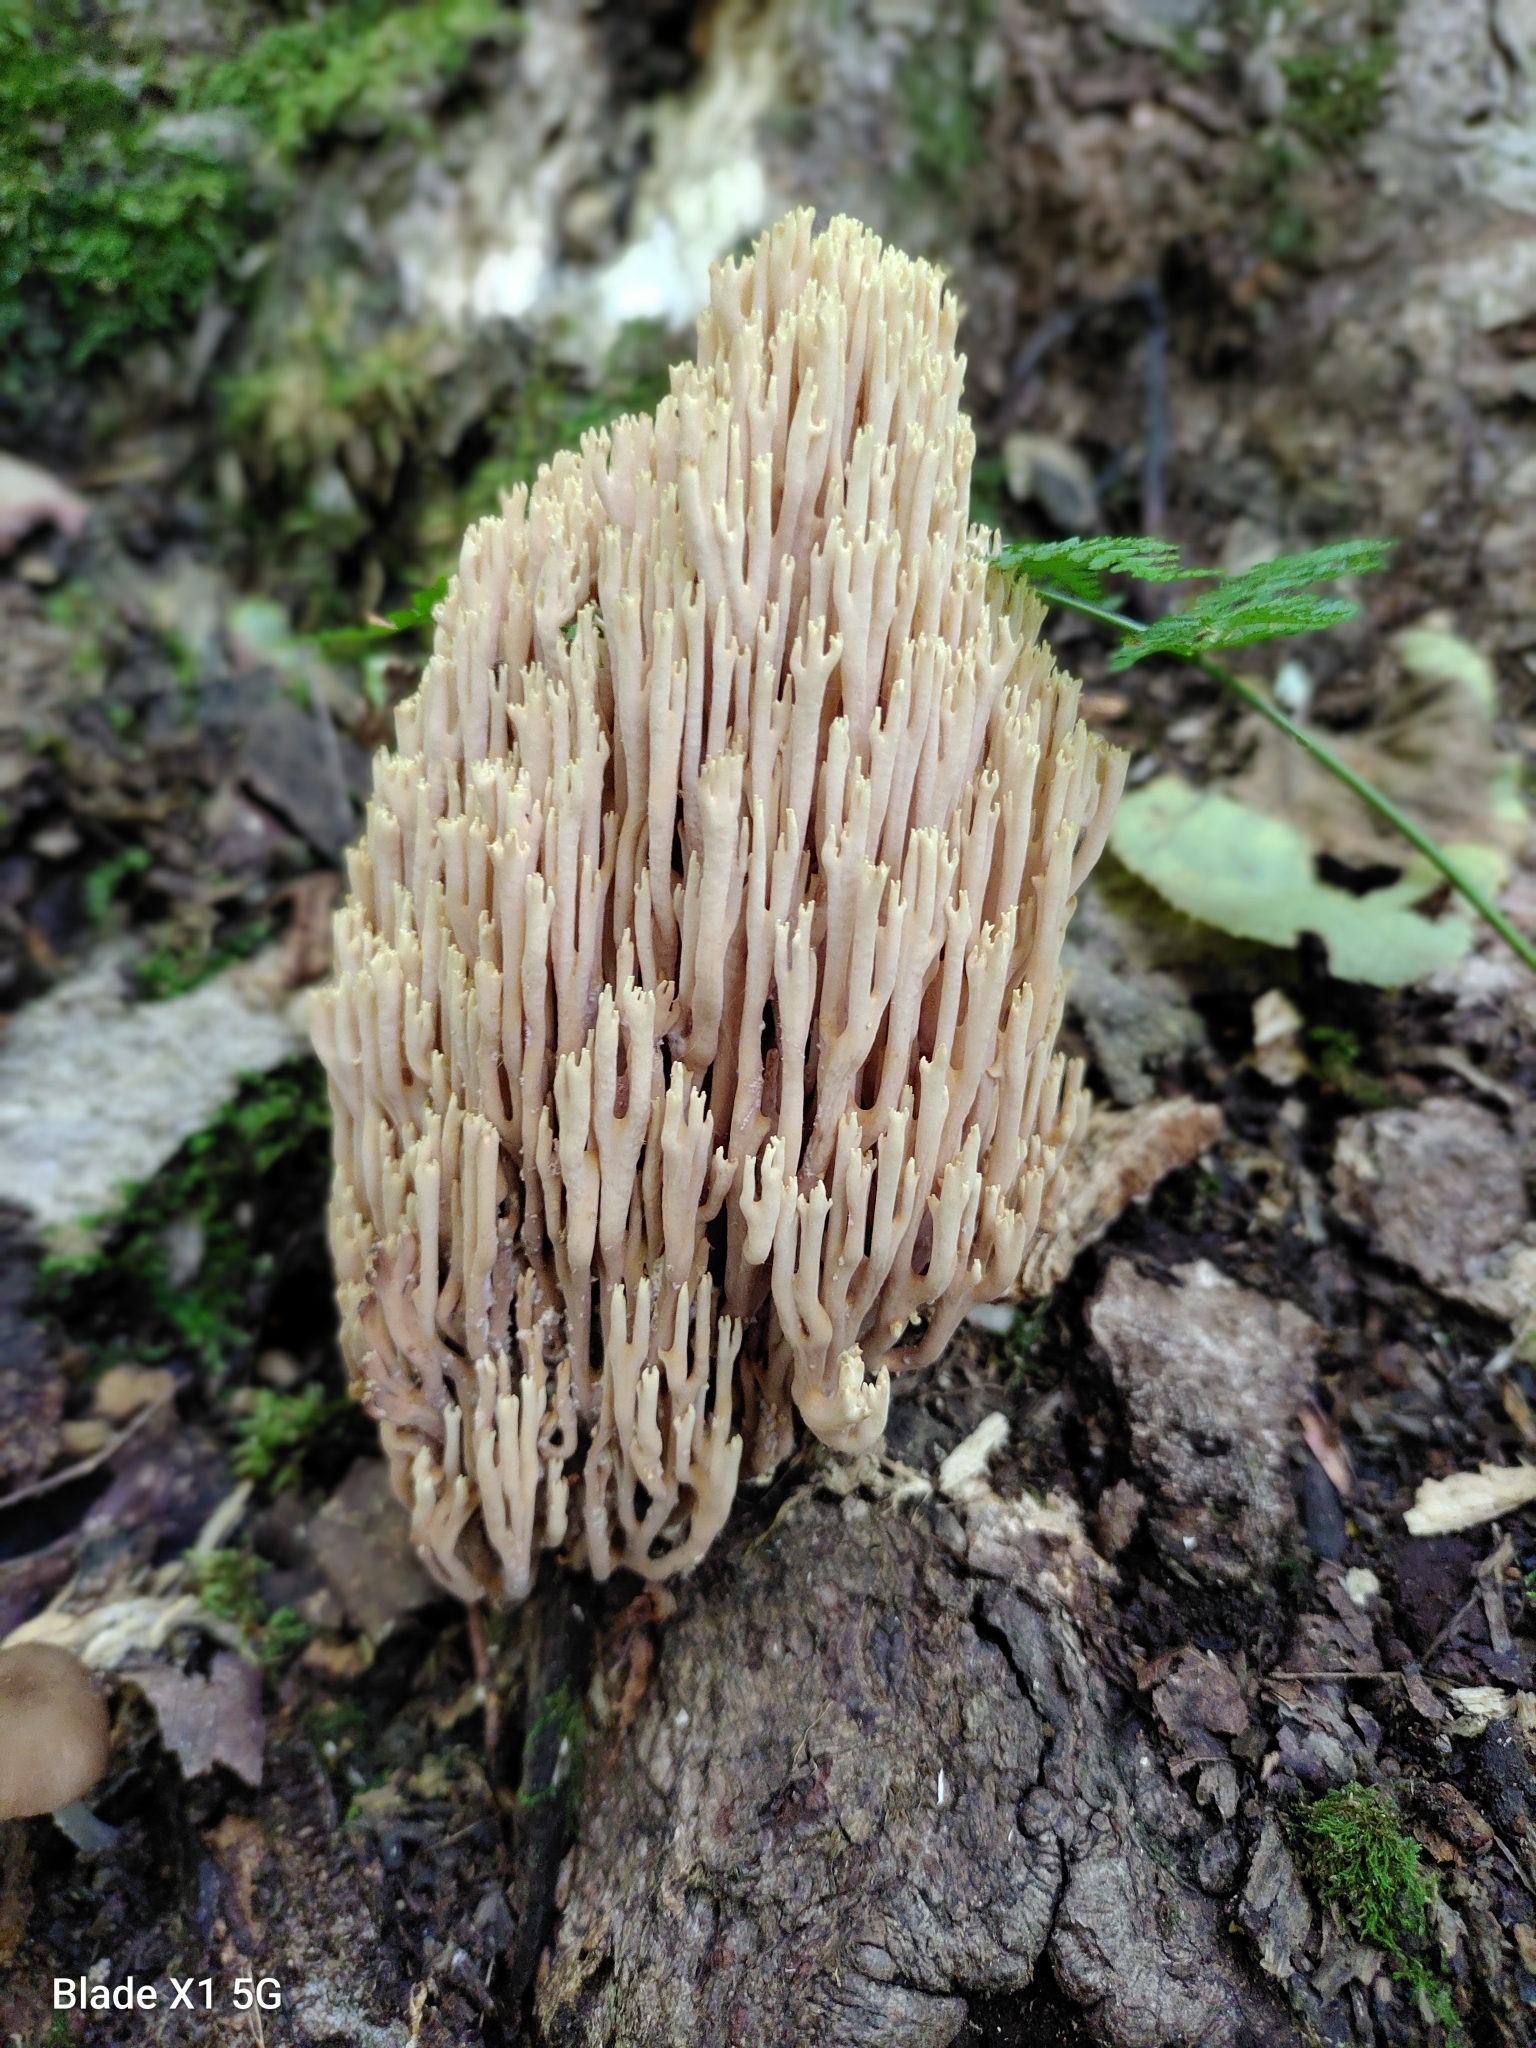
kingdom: Fungi
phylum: Basidiomycota
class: Agaricomycetes
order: Gomphales
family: Gomphaceae
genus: Ramaria
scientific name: Ramaria stricta
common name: Upright coral
